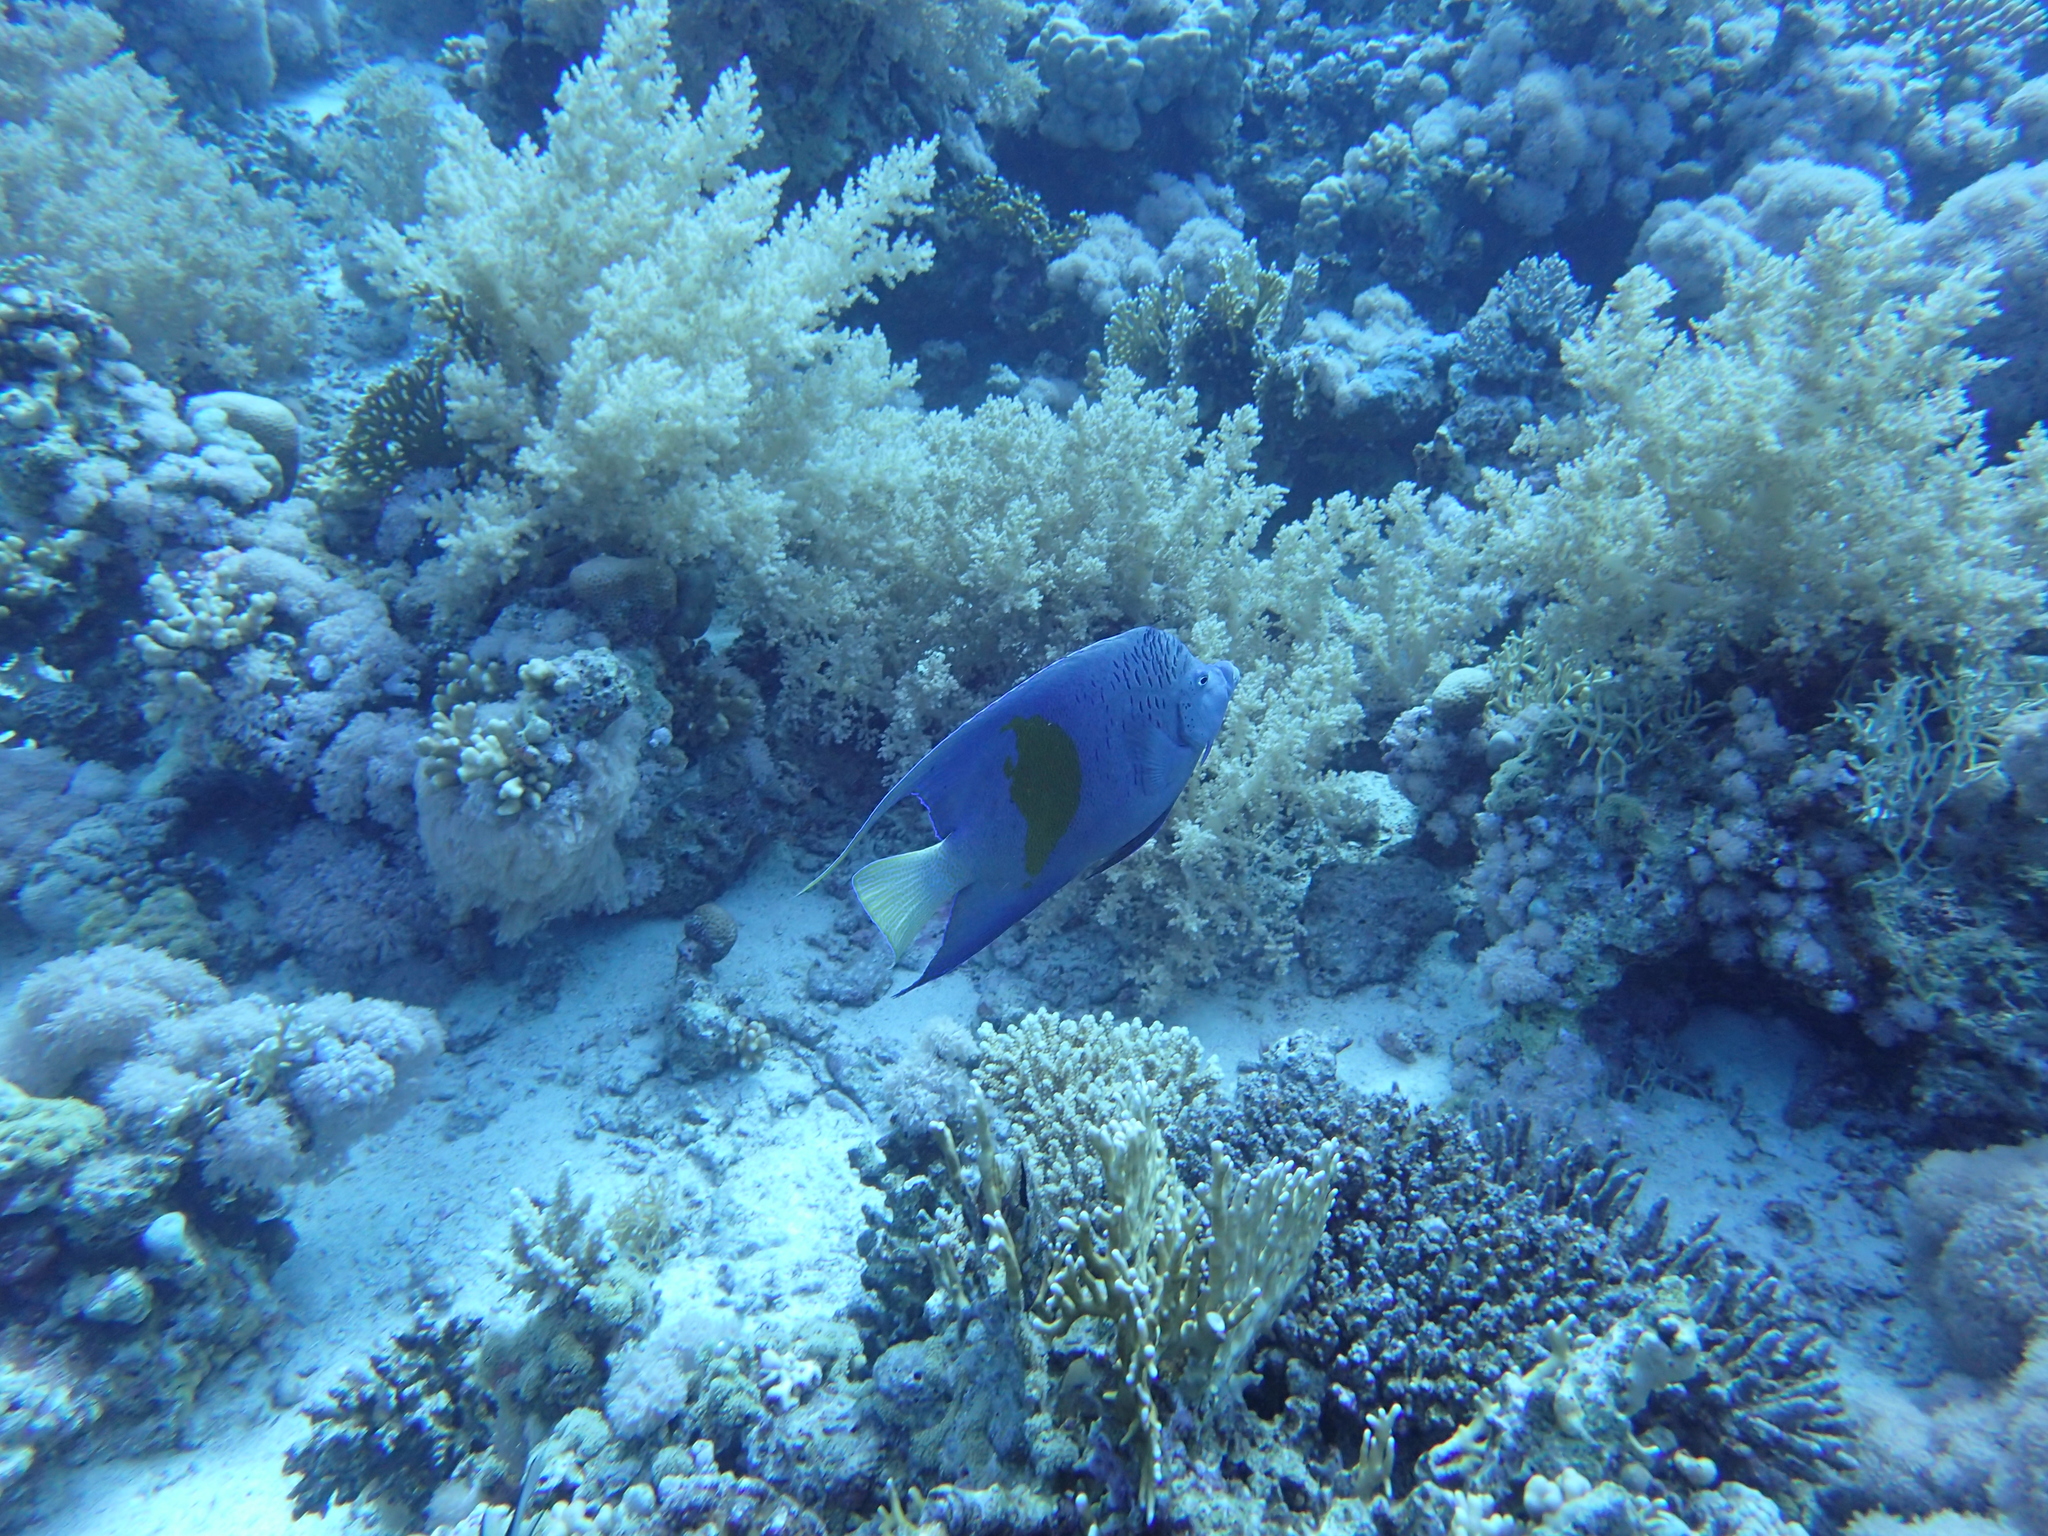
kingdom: Animalia
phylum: Chordata
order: Perciformes
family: Pomacanthidae
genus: Pomacanthus
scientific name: Pomacanthus maculosus
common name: Yellowbar angelfish
